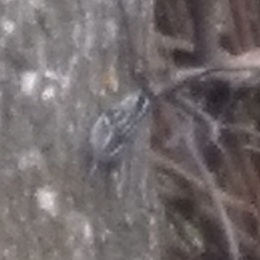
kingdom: Animalia
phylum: Chordata
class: Aves
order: Passeriformes
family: Parulidae
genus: Mniotilta
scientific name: Mniotilta varia
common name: Black-and-white warbler
